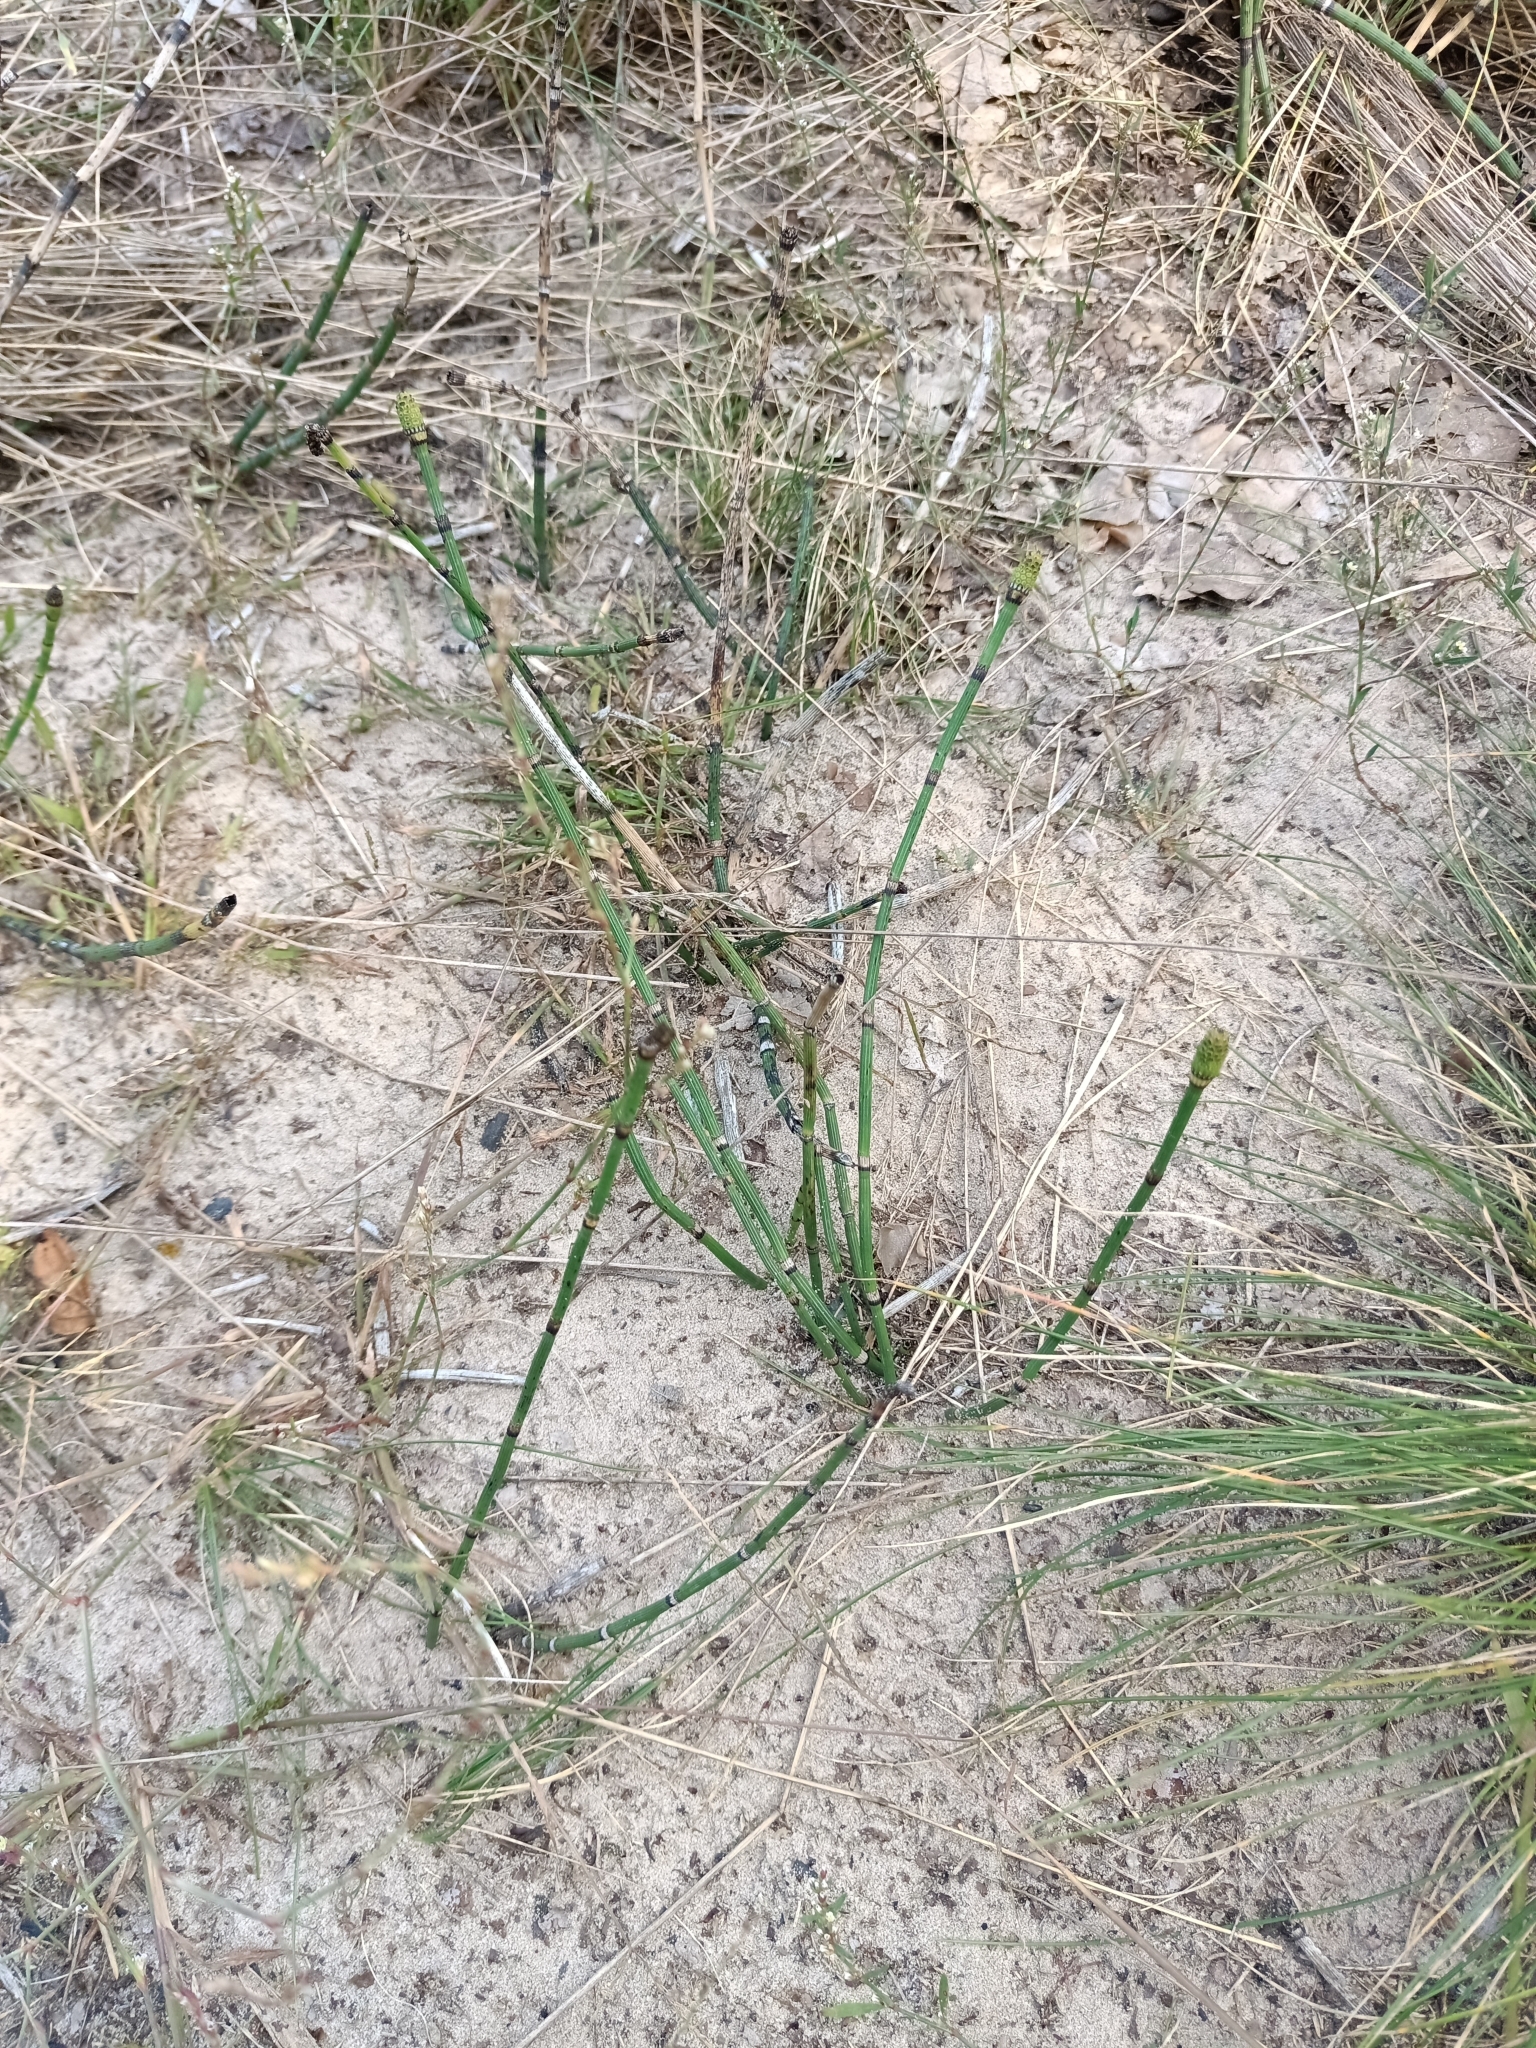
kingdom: Plantae
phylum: Tracheophyta
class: Polypodiopsida
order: Equisetales
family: Equisetaceae
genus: Equisetum
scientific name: Equisetum hyemale
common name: Rough horsetail
